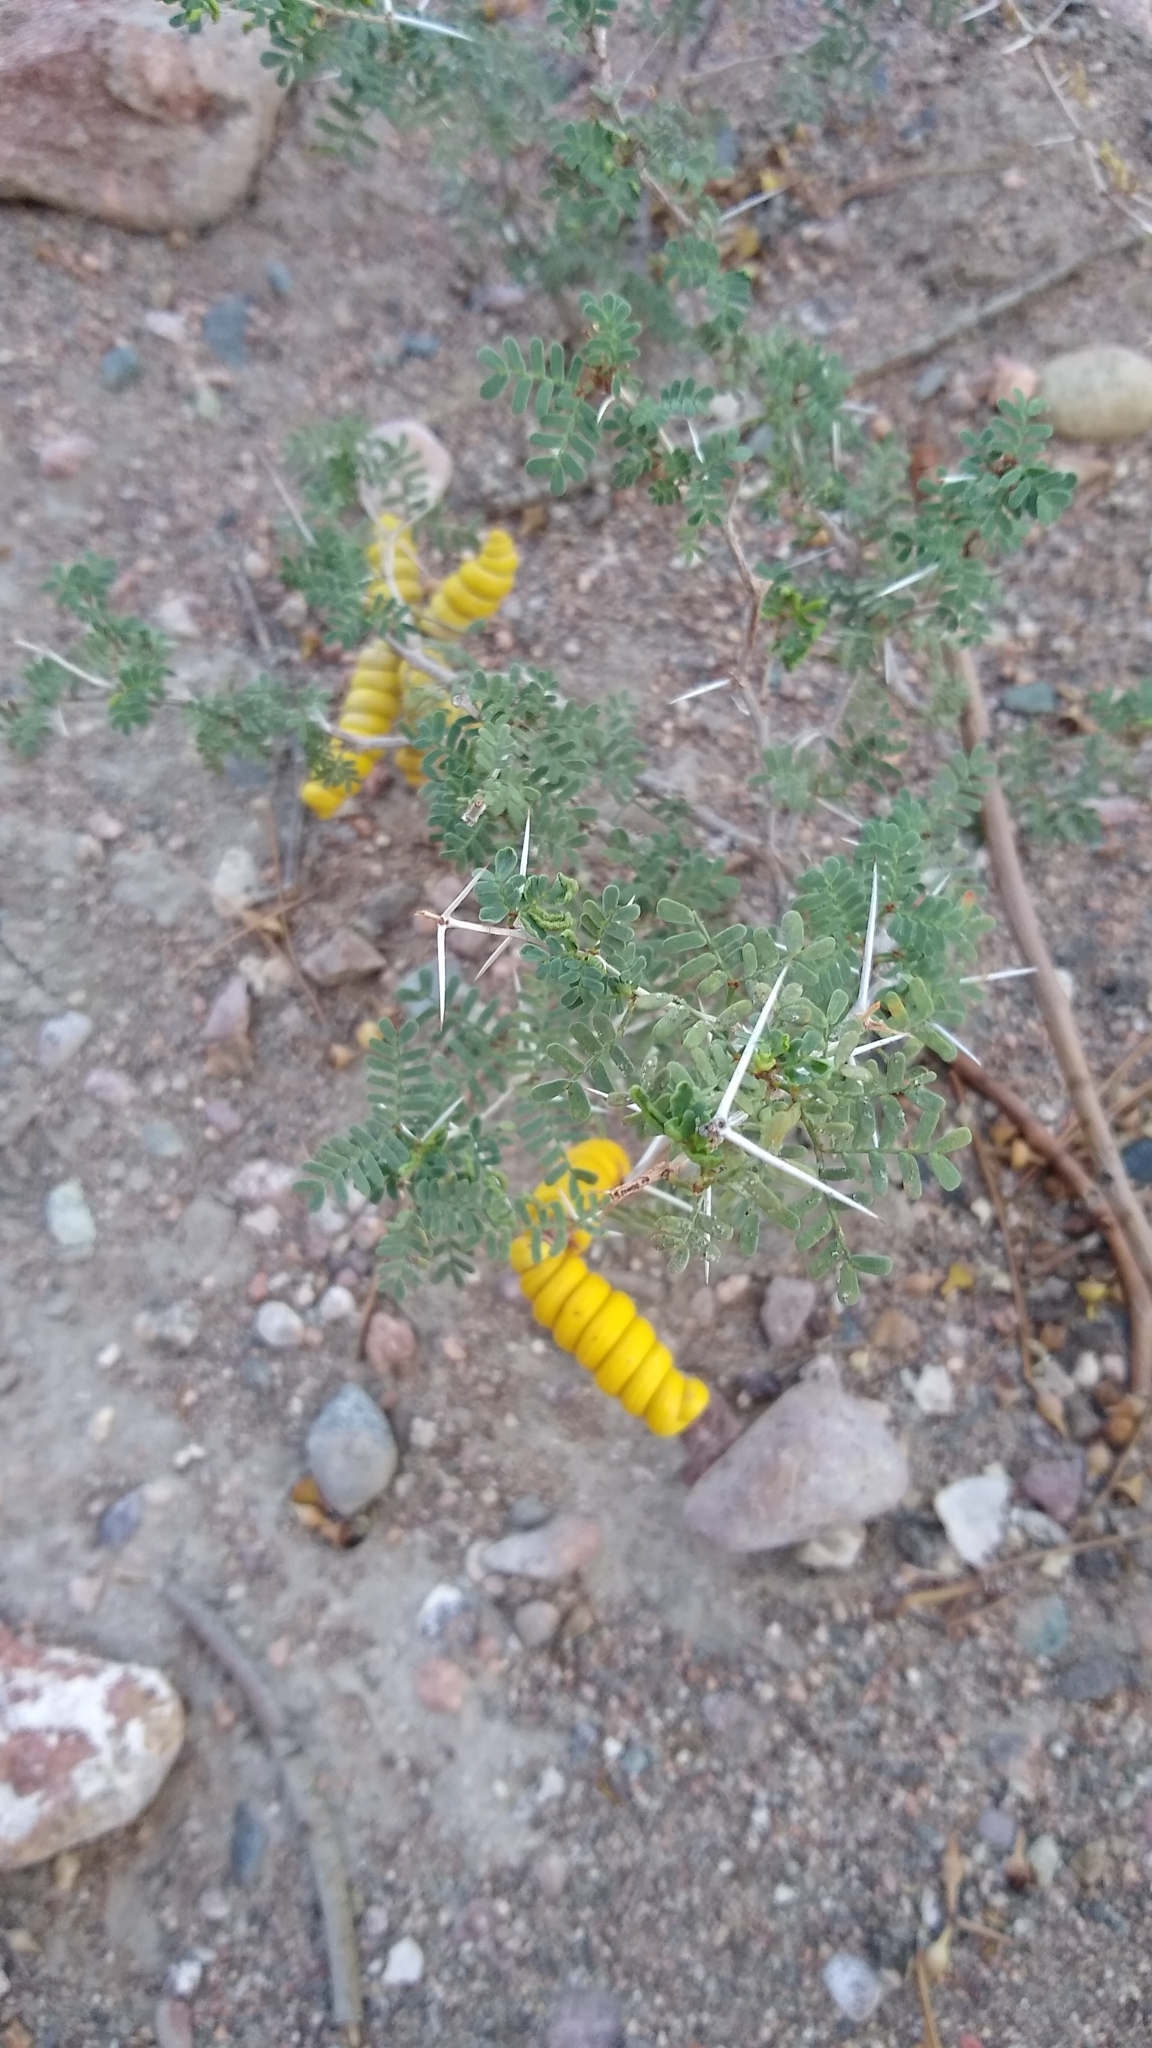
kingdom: Plantae
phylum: Tracheophyta
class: Magnoliopsida
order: Fabales
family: Fabaceae
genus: Prosopis
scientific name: Prosopis strombulifera
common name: Creeping mesquite
